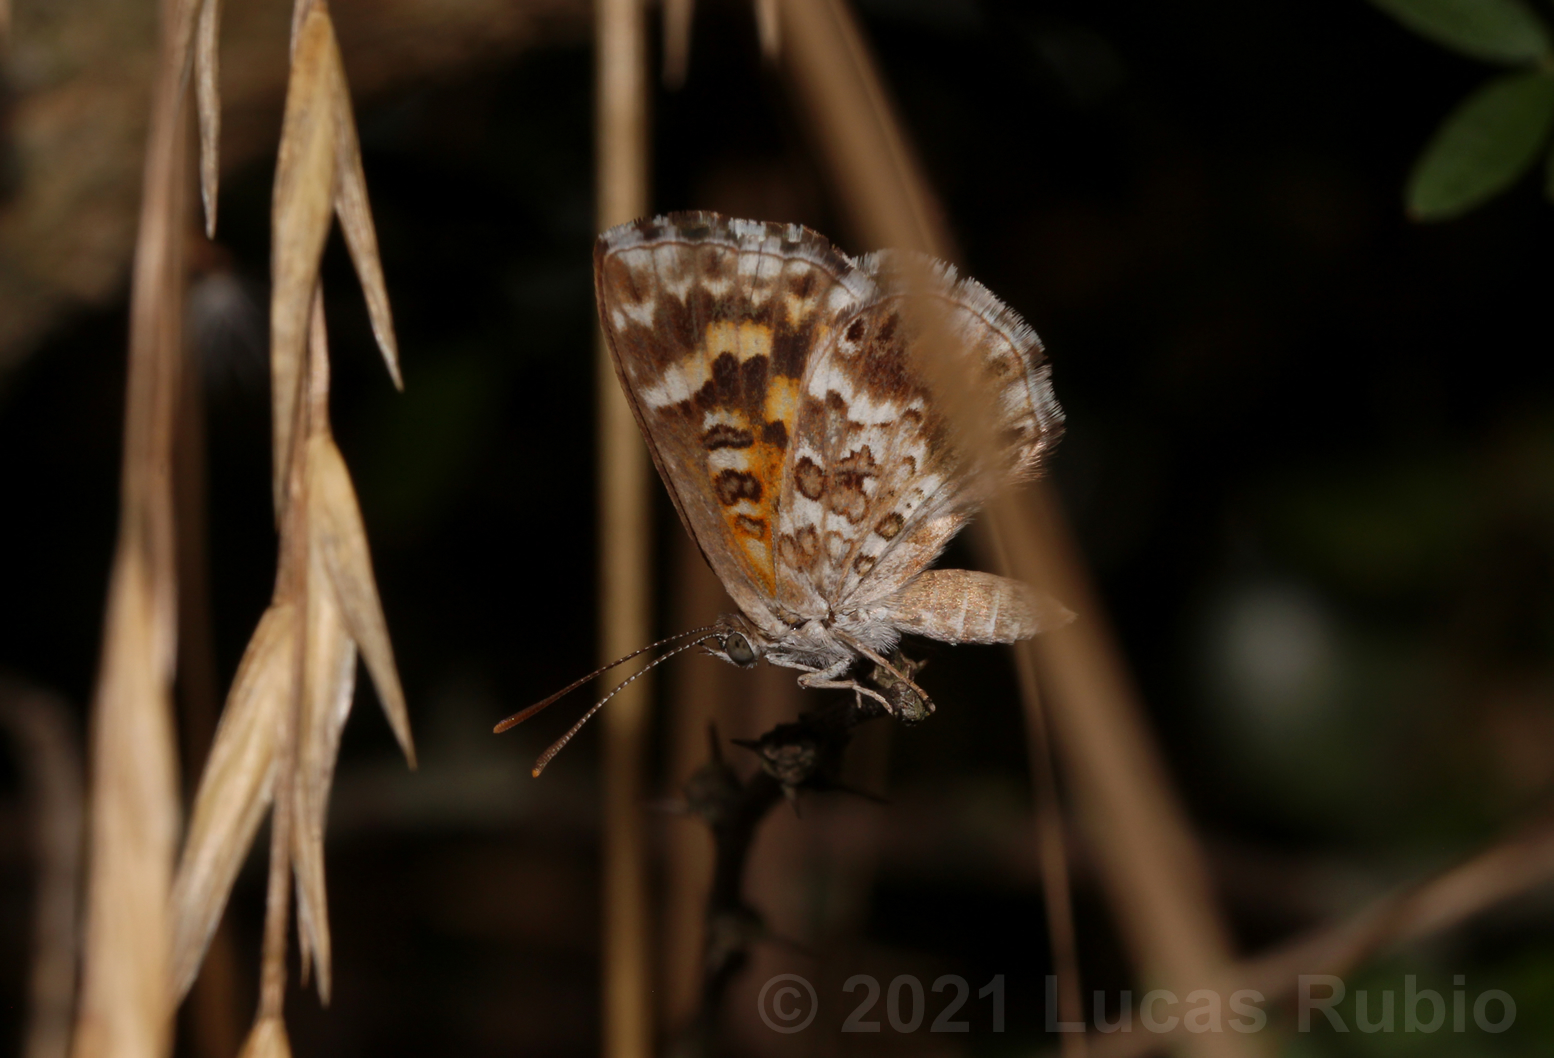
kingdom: Animalia
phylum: Arthropoda
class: Insecta
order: Lepidoptera
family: Lycaenidae
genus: Aricoris
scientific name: Aricoris signata
